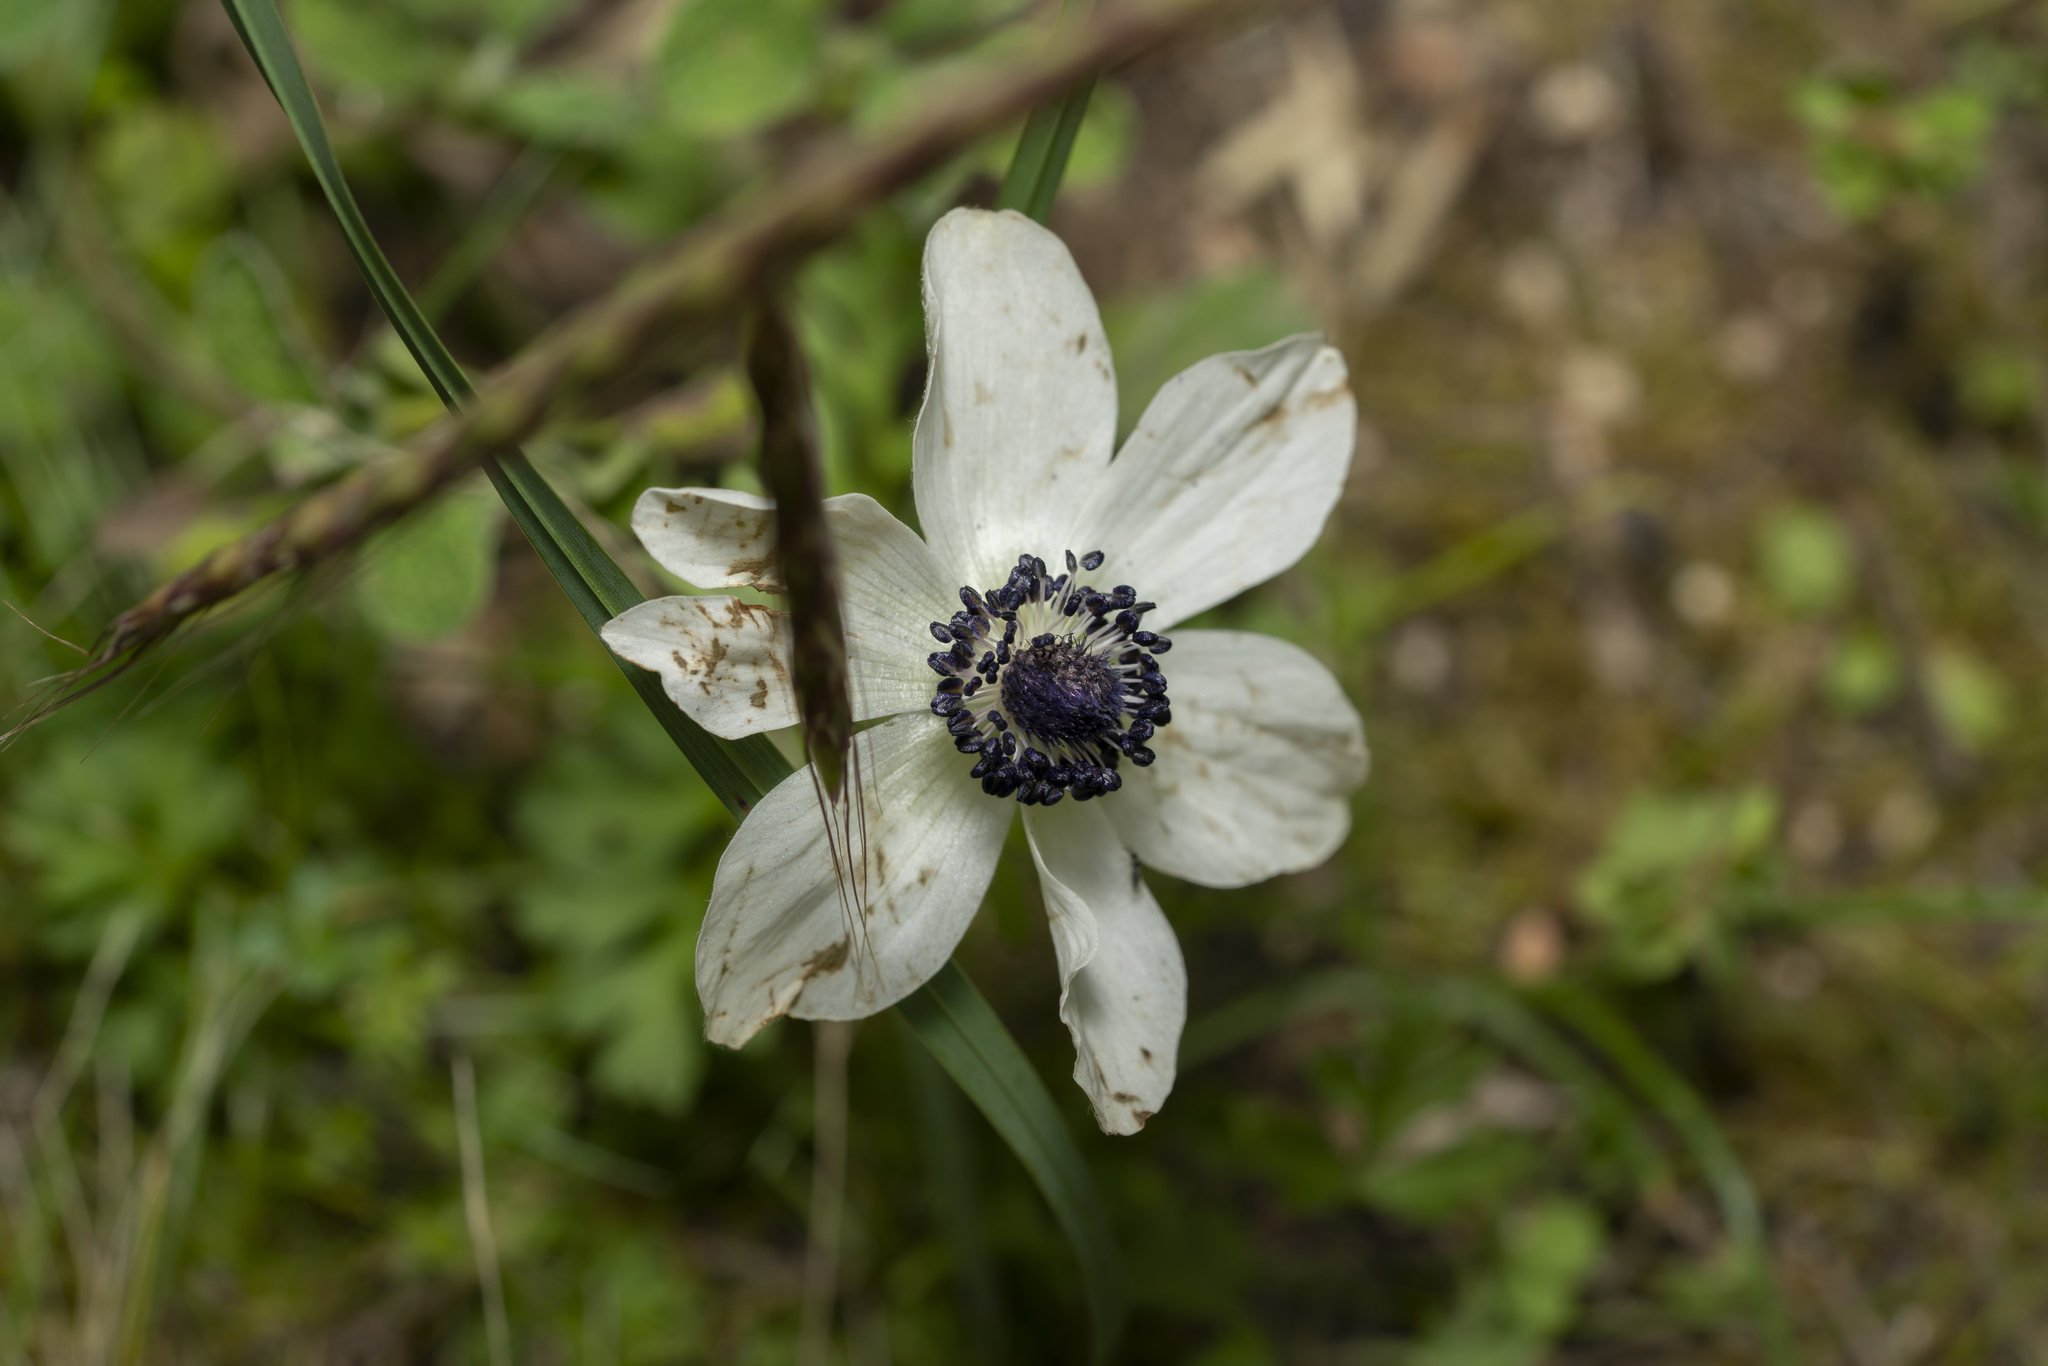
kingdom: Plantae
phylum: Tracheophyta
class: Magnoliopsida
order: Ranunculales
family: Ranunculaceae
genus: Anemone
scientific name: Anemone coronaria
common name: Poppy anemone
